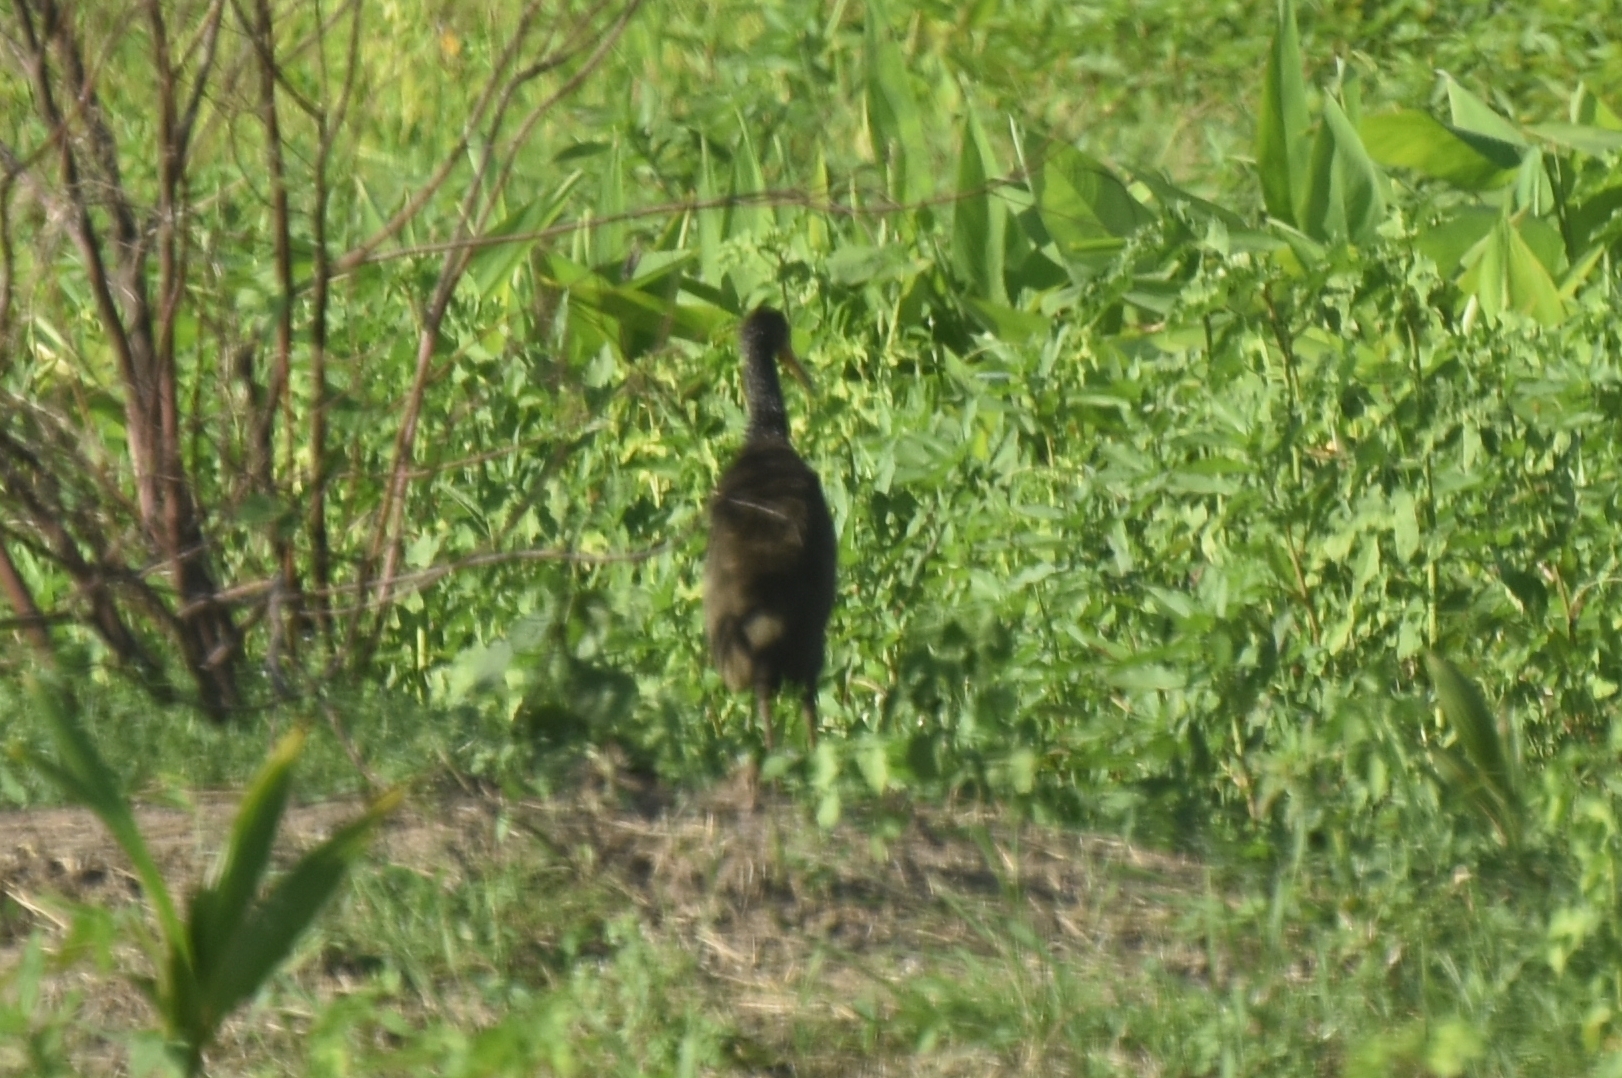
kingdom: Animalia
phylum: Chordata
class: Aves
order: Gruiformes
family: Aramidae
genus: Aramus
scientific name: Aramus guarauna
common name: Limpkin
